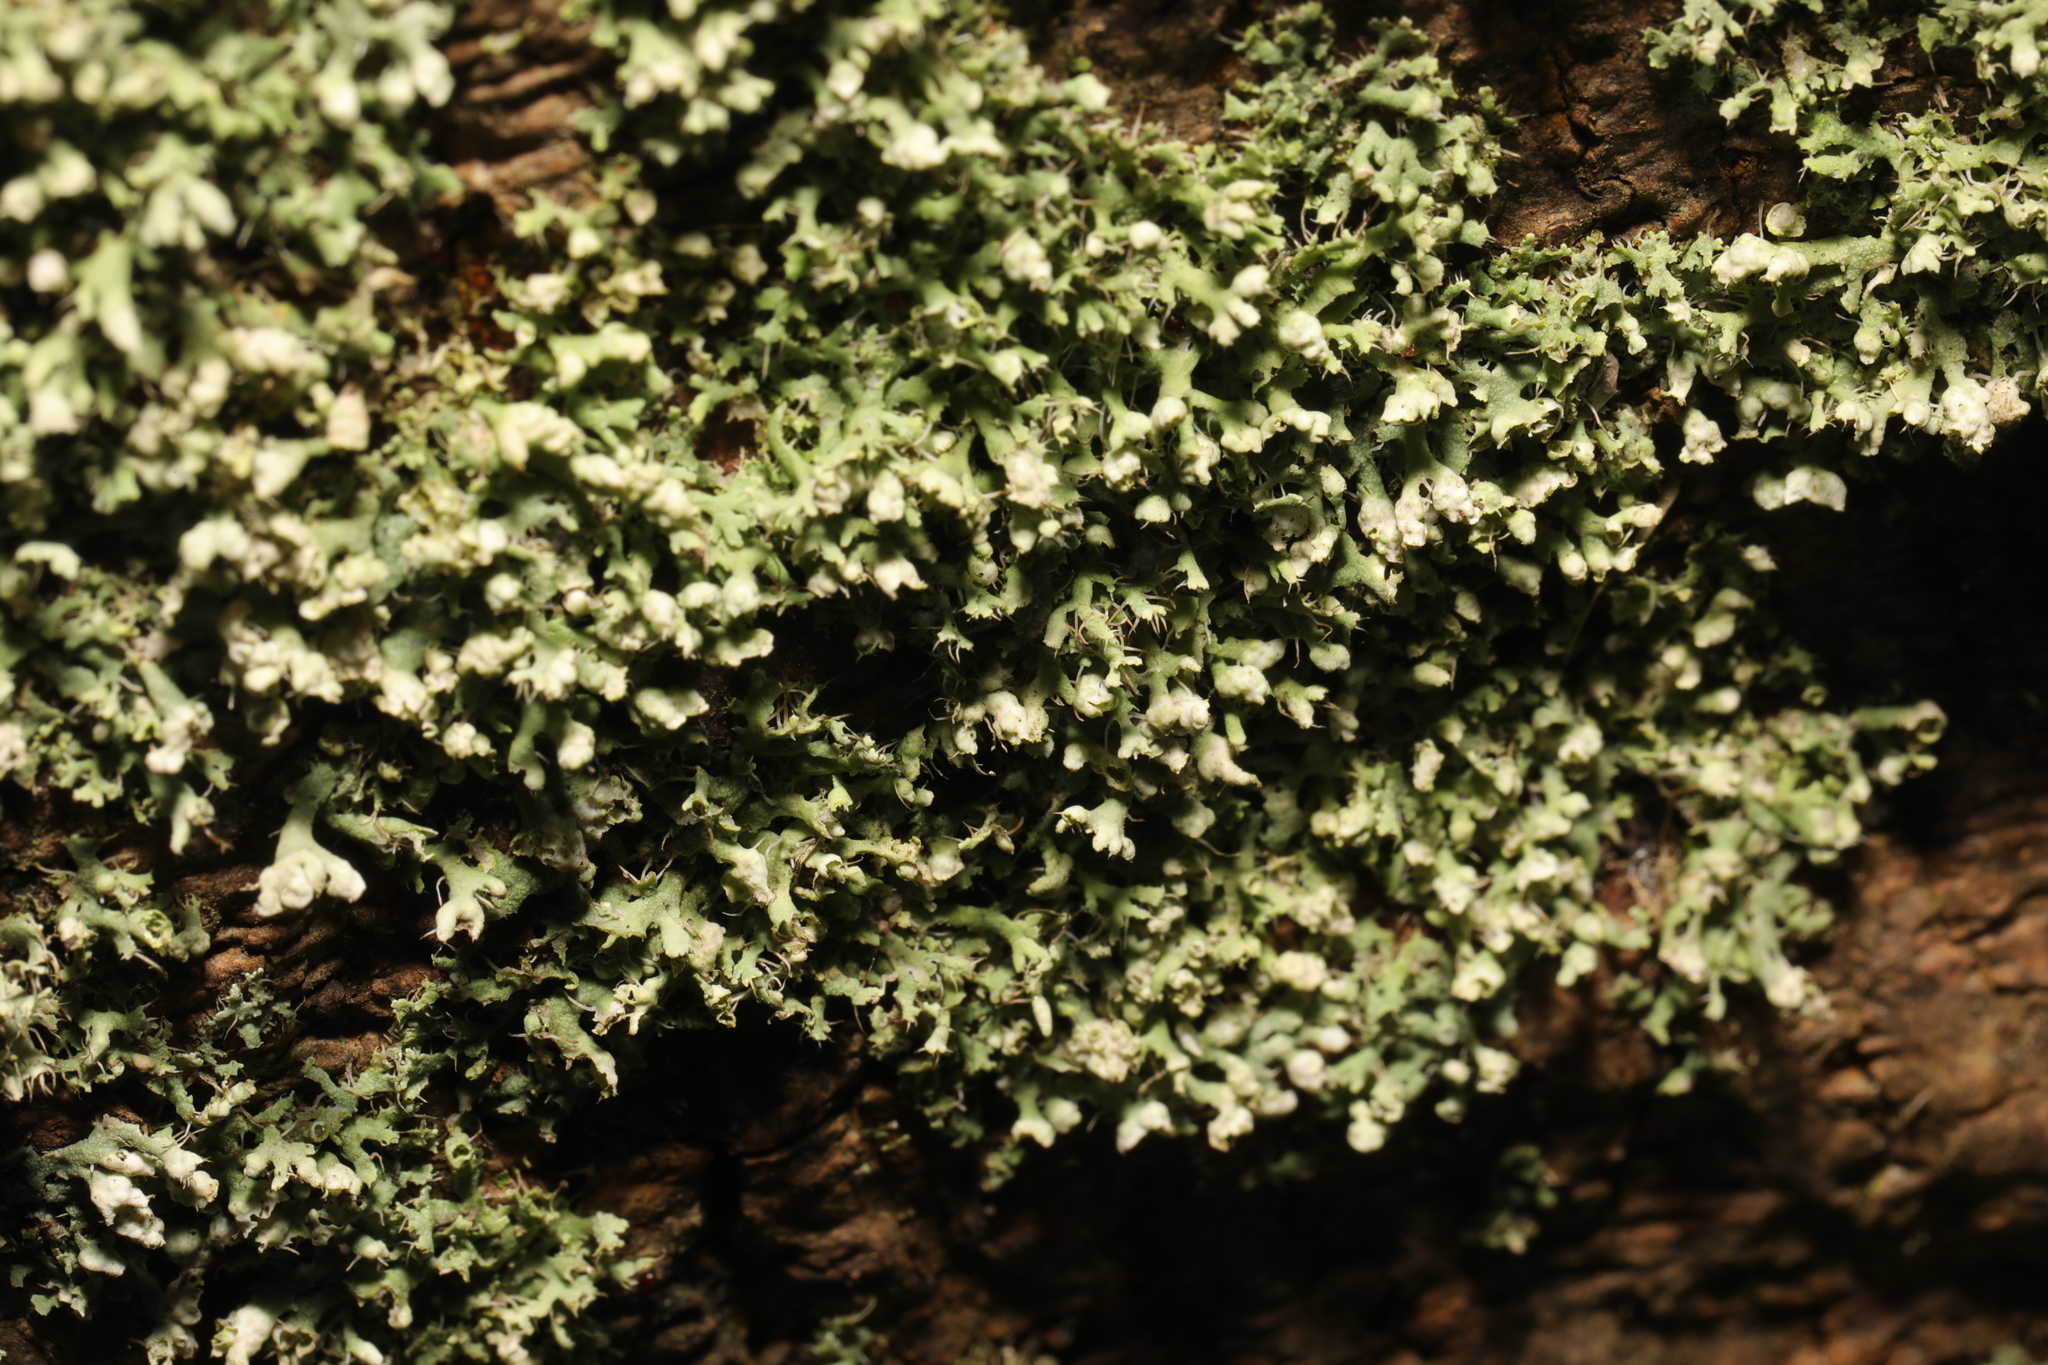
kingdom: Fungi
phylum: Ascomycota
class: Lecanoromycetes
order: Caliciales
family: Physciaceae
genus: Physcia
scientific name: Physcia adscendens
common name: Hooded rosette lichen
